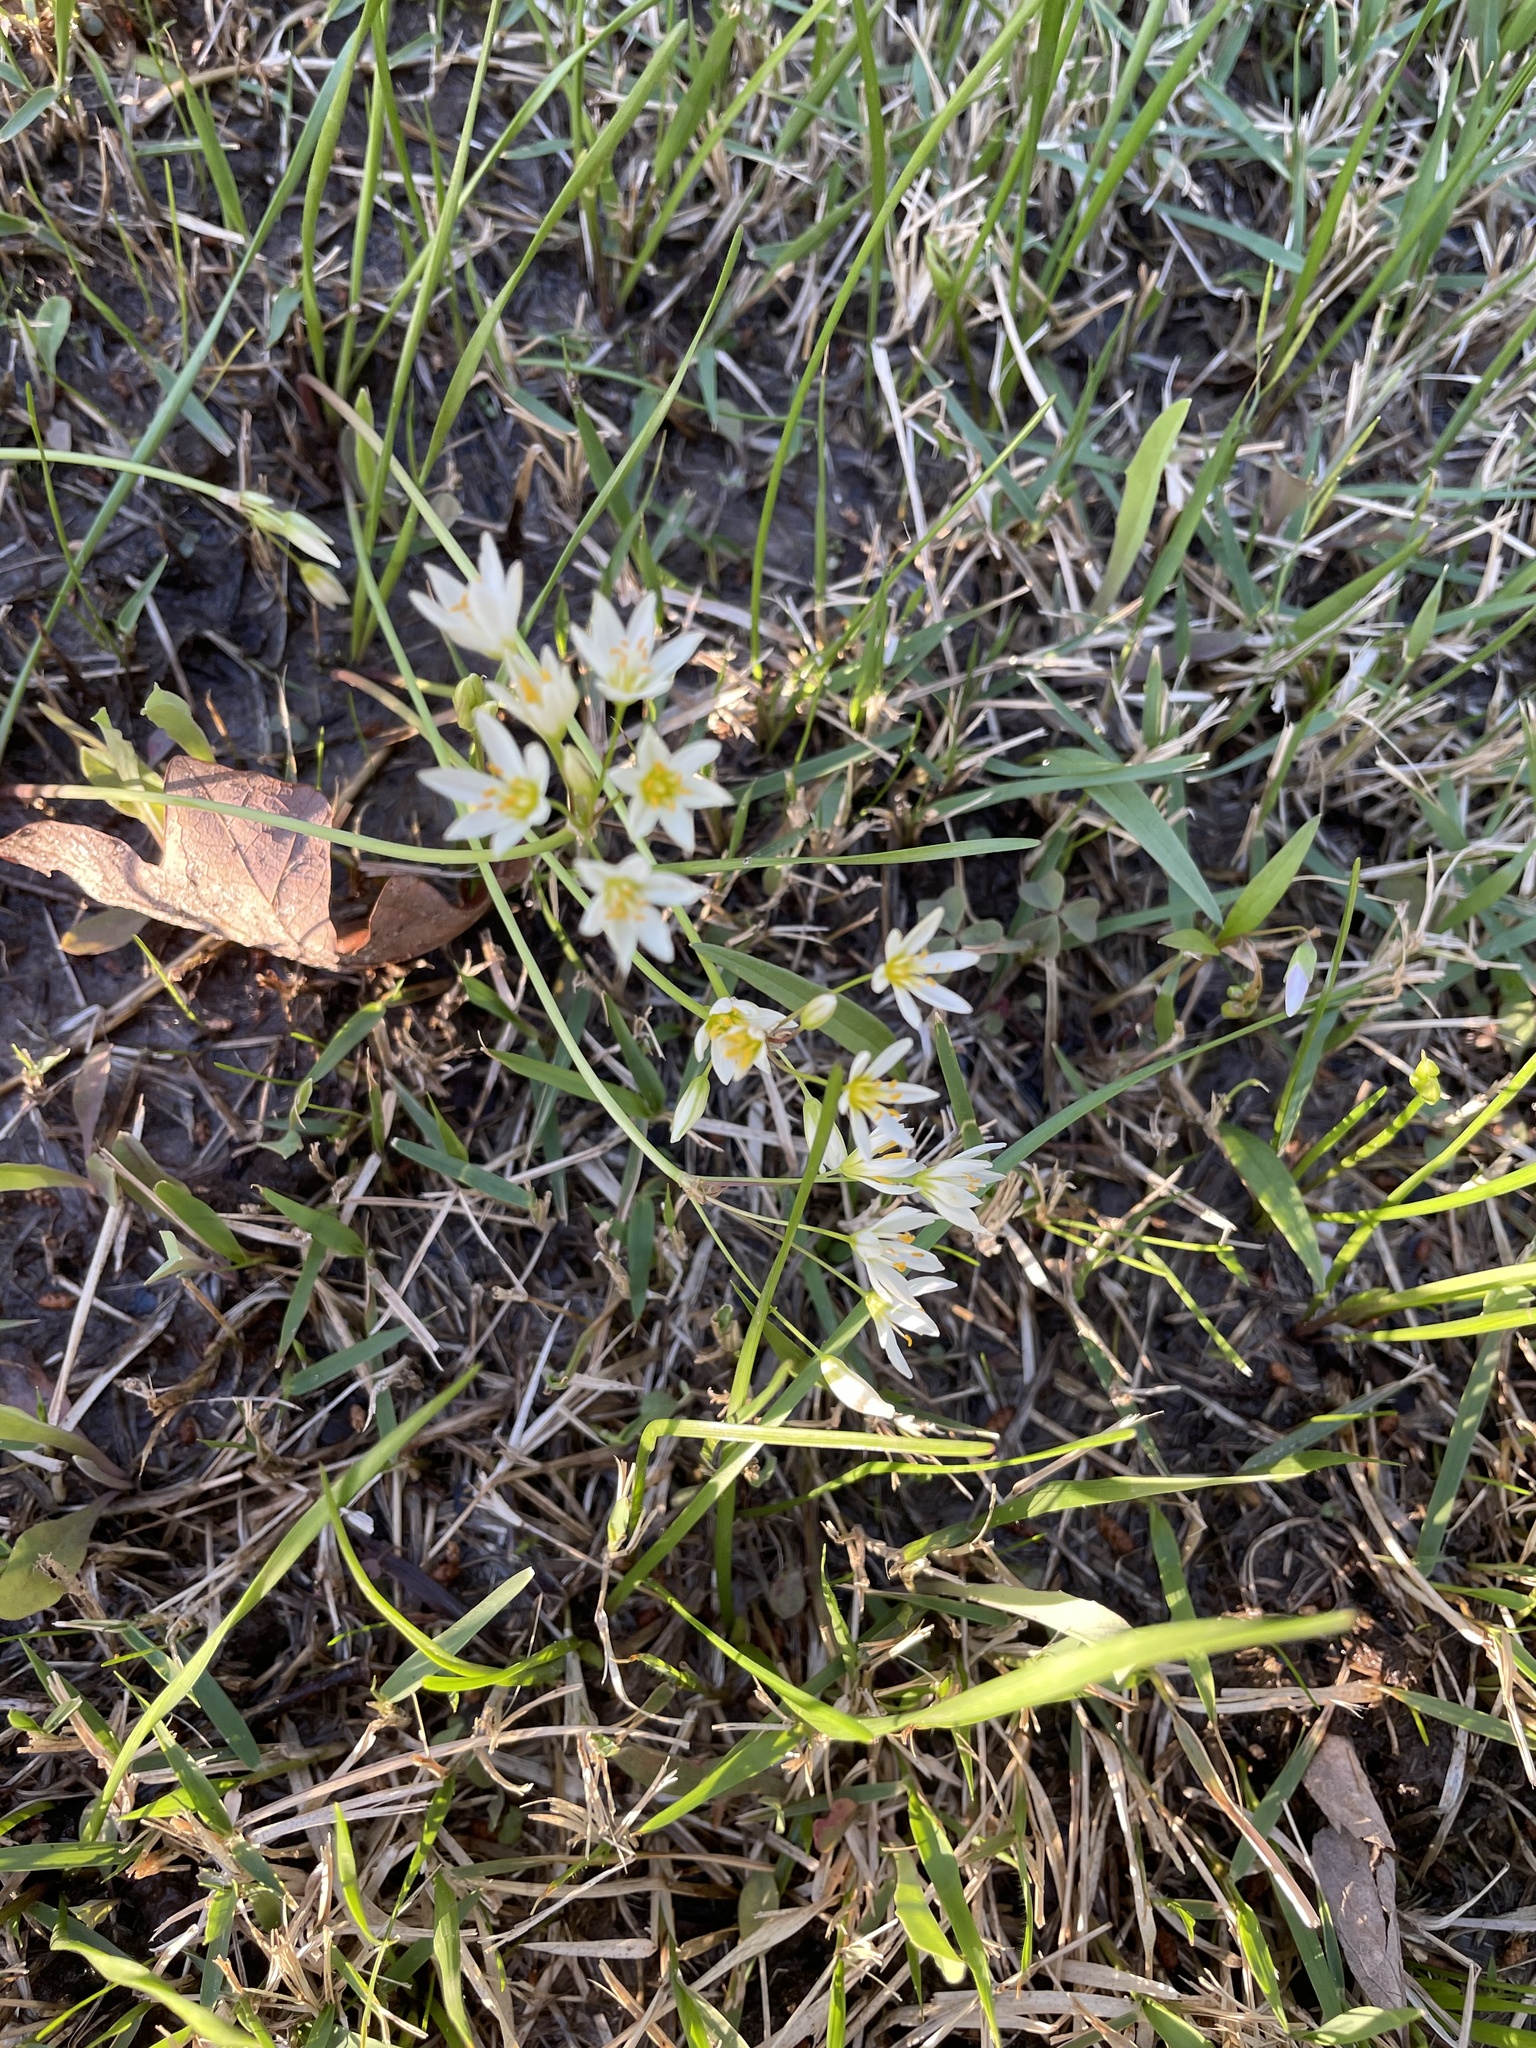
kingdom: Plantae
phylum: Tracheophyta
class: Liliopsida
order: Asparagales
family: Amaryllidaceae
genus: Nothoscordum
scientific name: Nothoscordum bivalve
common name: Crow-poison
